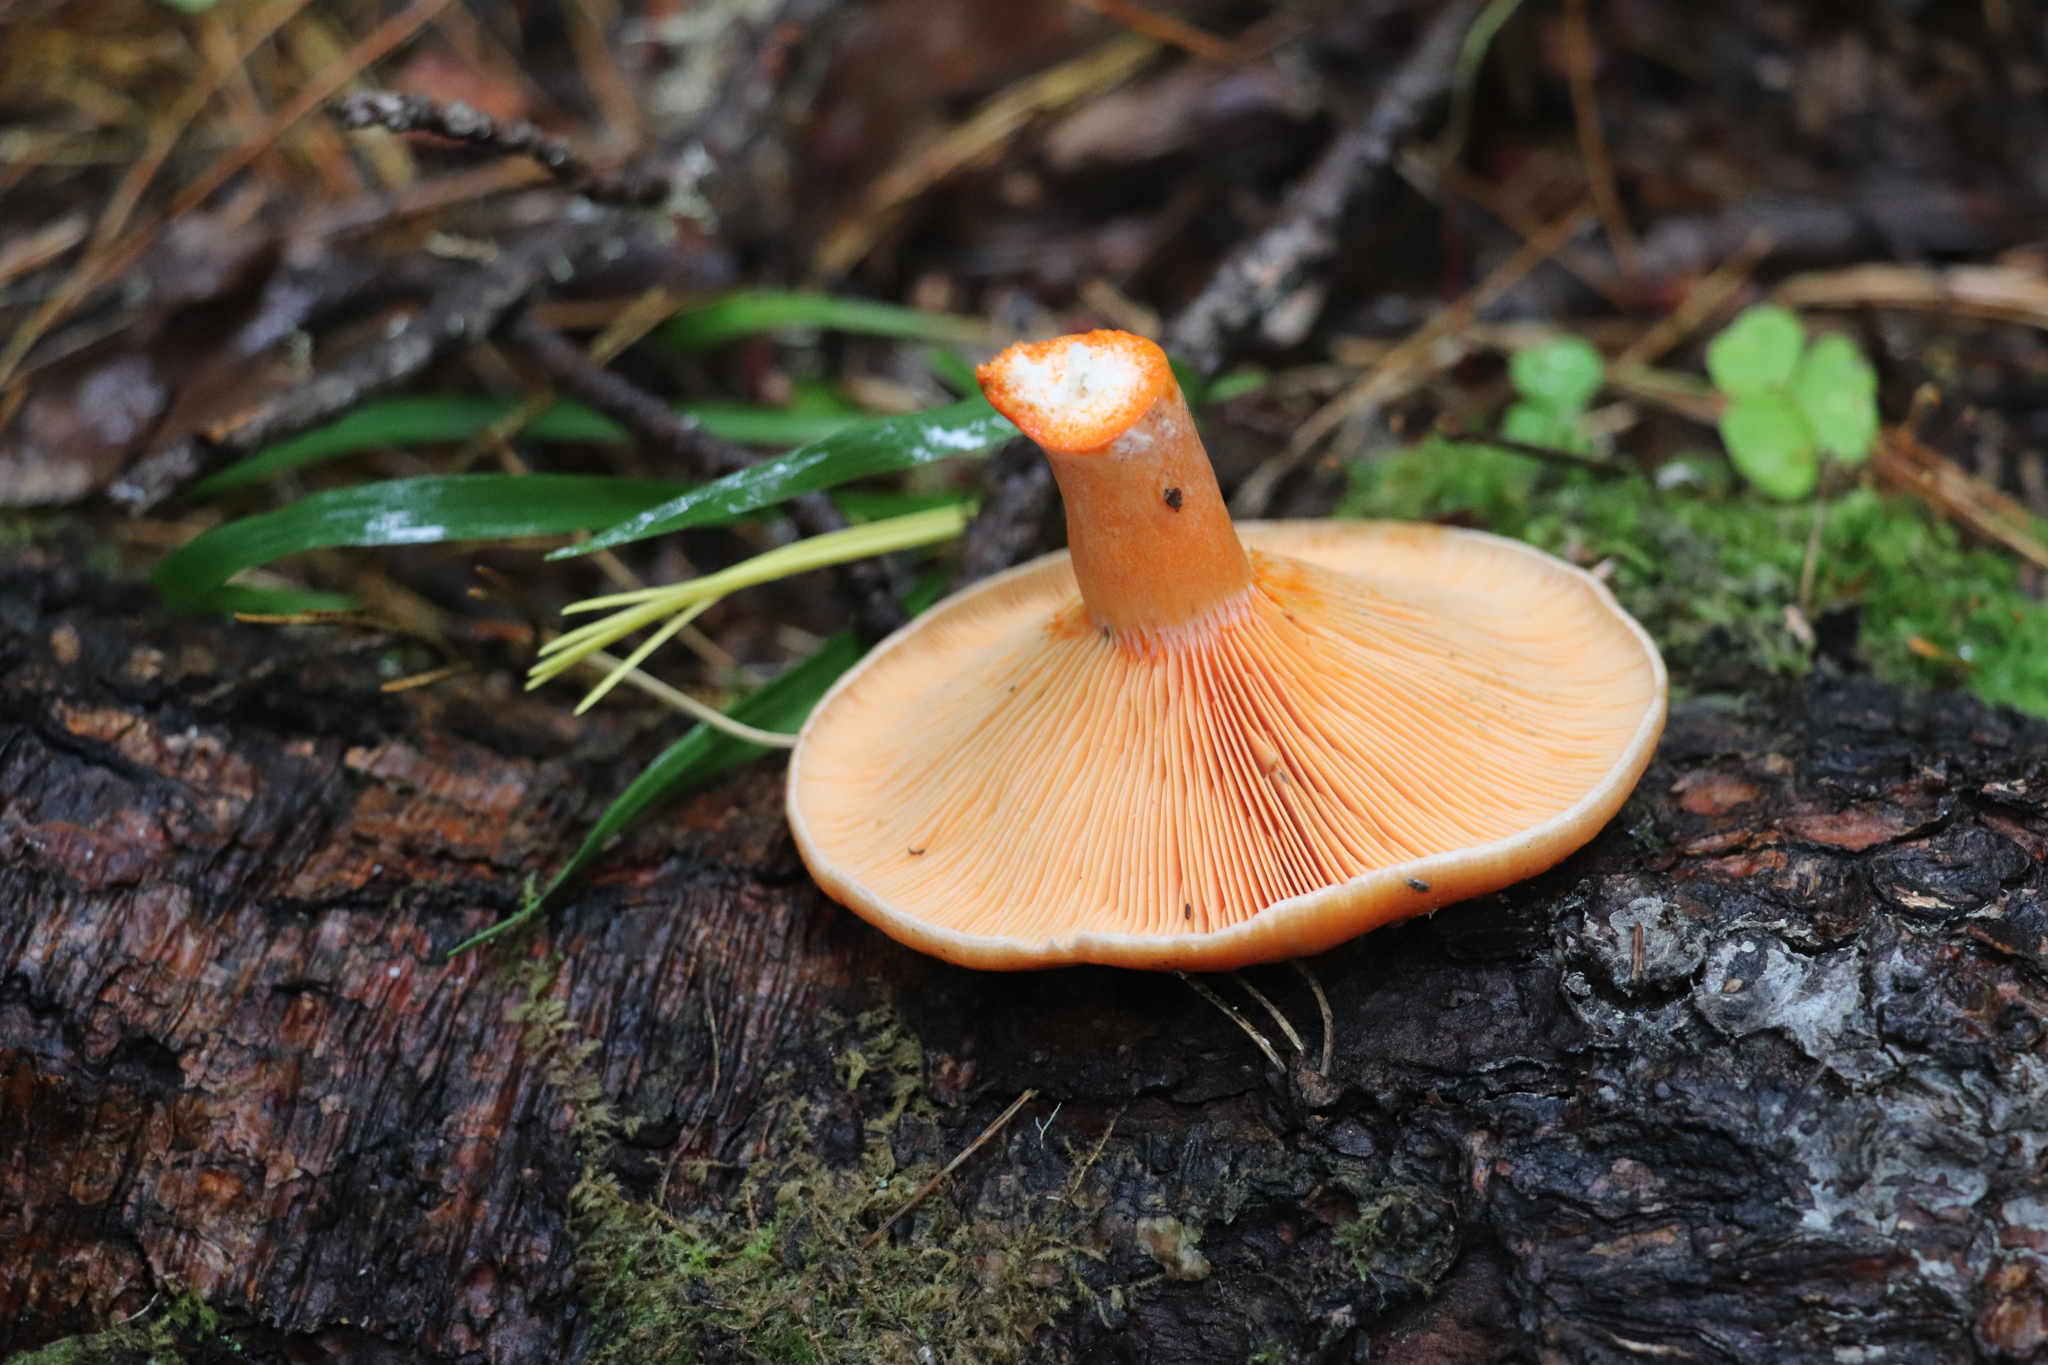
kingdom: Fungi
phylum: Basidiomycota
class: Agaricomycetes
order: Russulales
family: Russulaceae
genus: Lactarius
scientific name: Lactarius deterrimus
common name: False saffron milkcap
